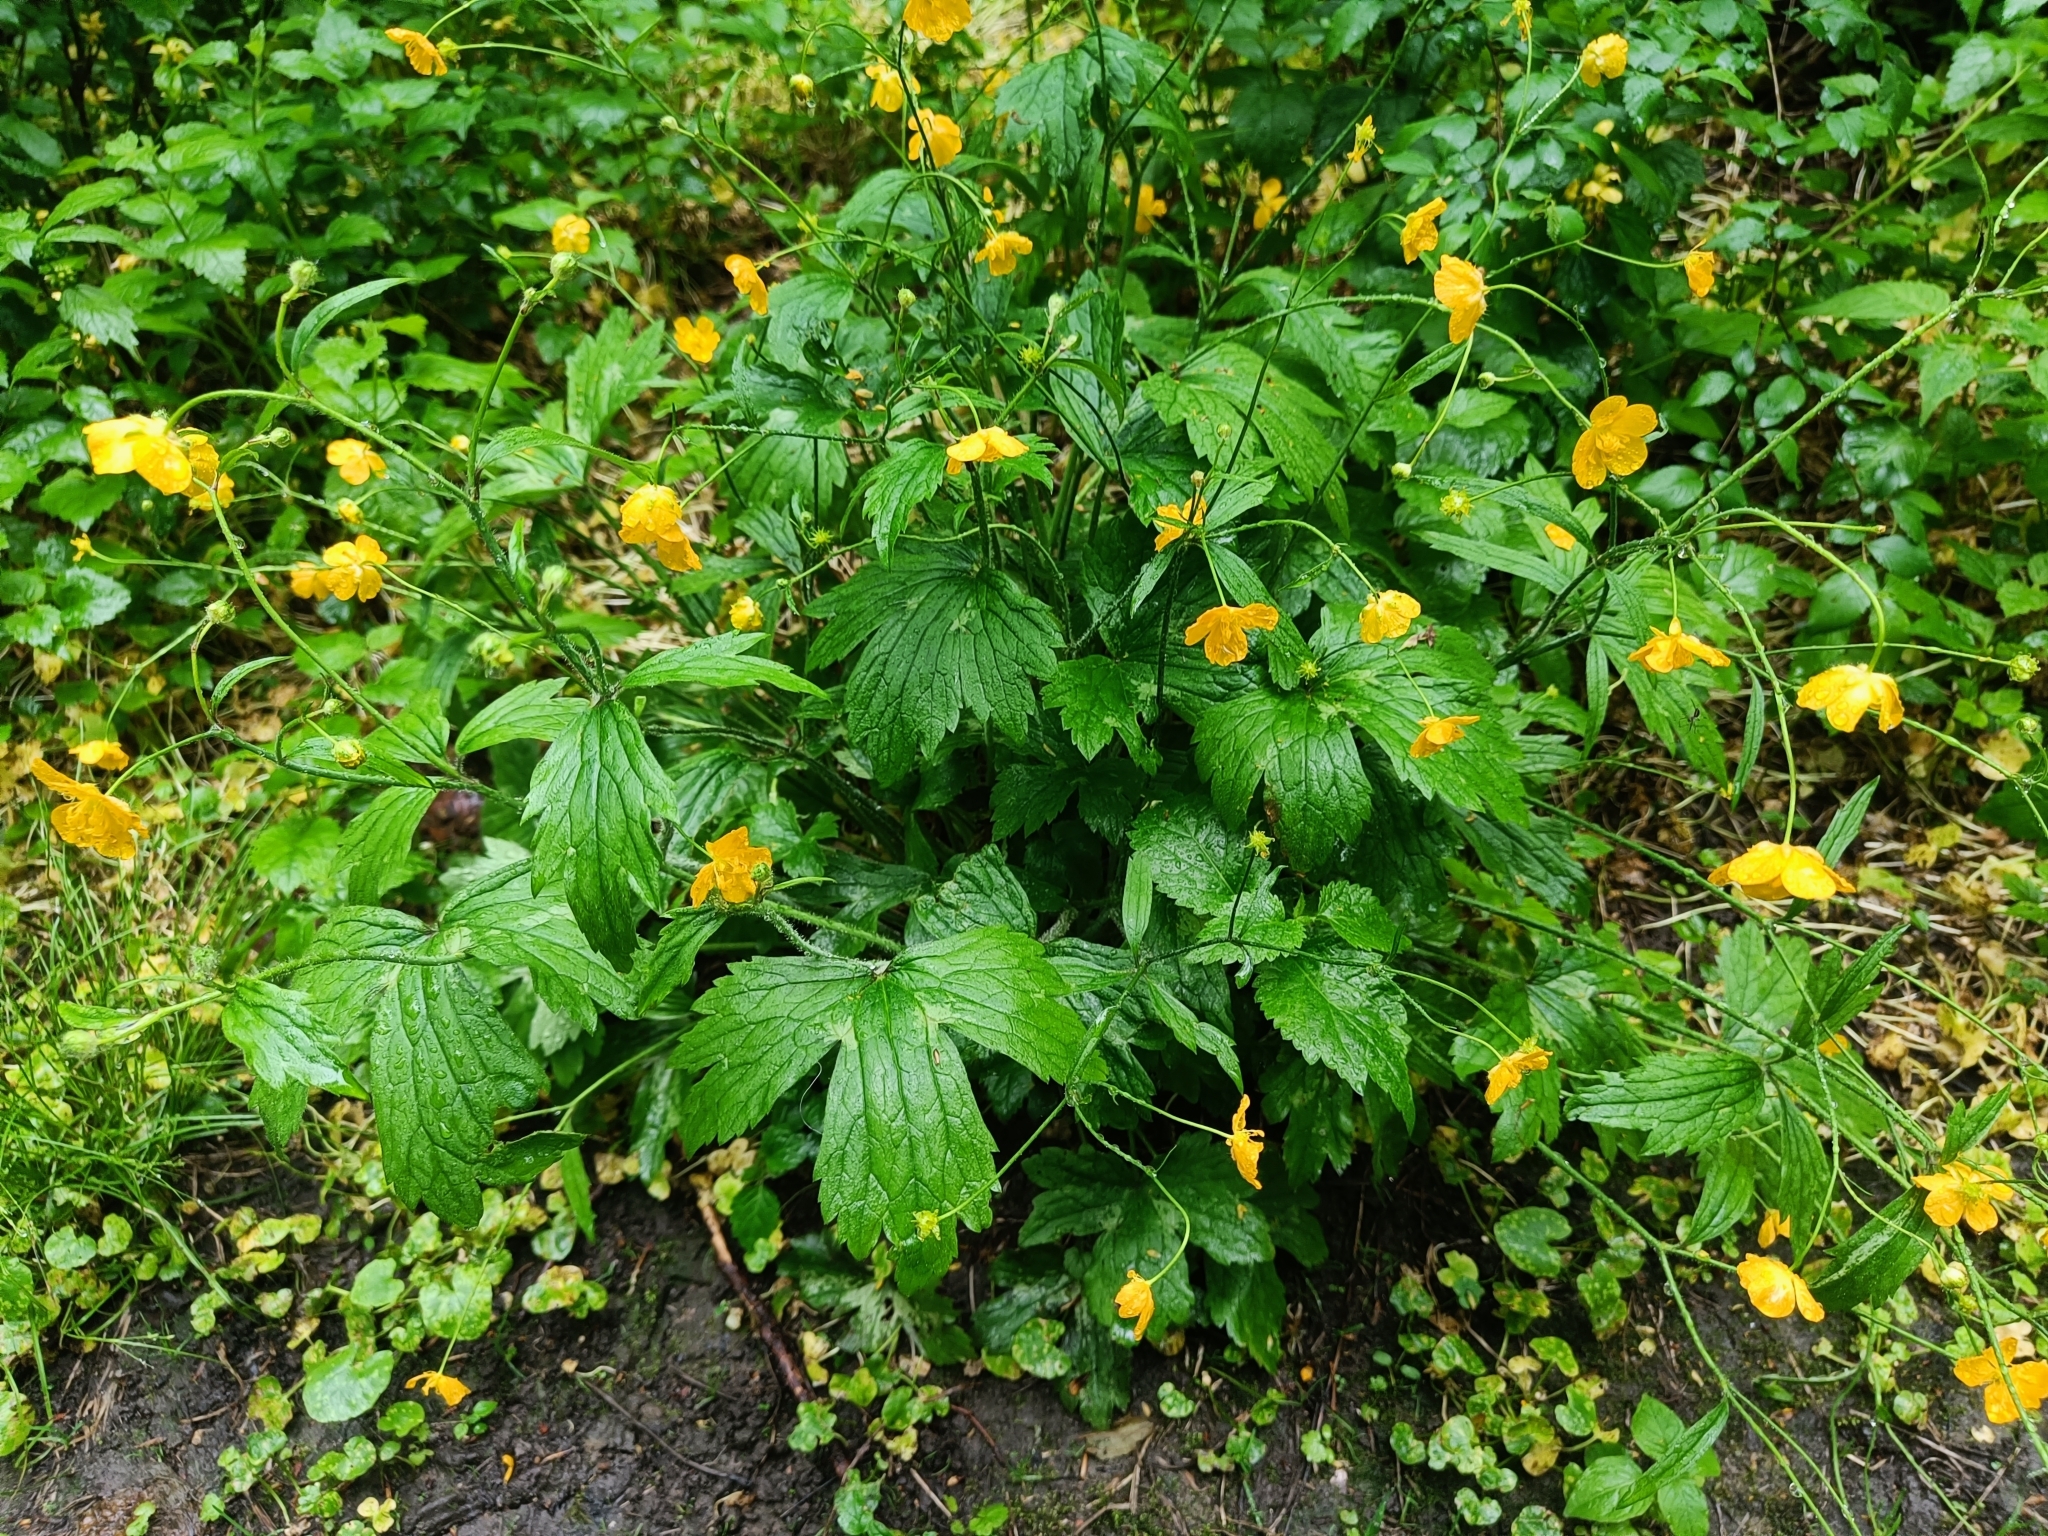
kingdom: Plantae
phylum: Tracheophyta
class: Magnoliopsida
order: Ranunculales
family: Ranunculaceae
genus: Ranunculus
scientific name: Ranunculus lanuginosus
